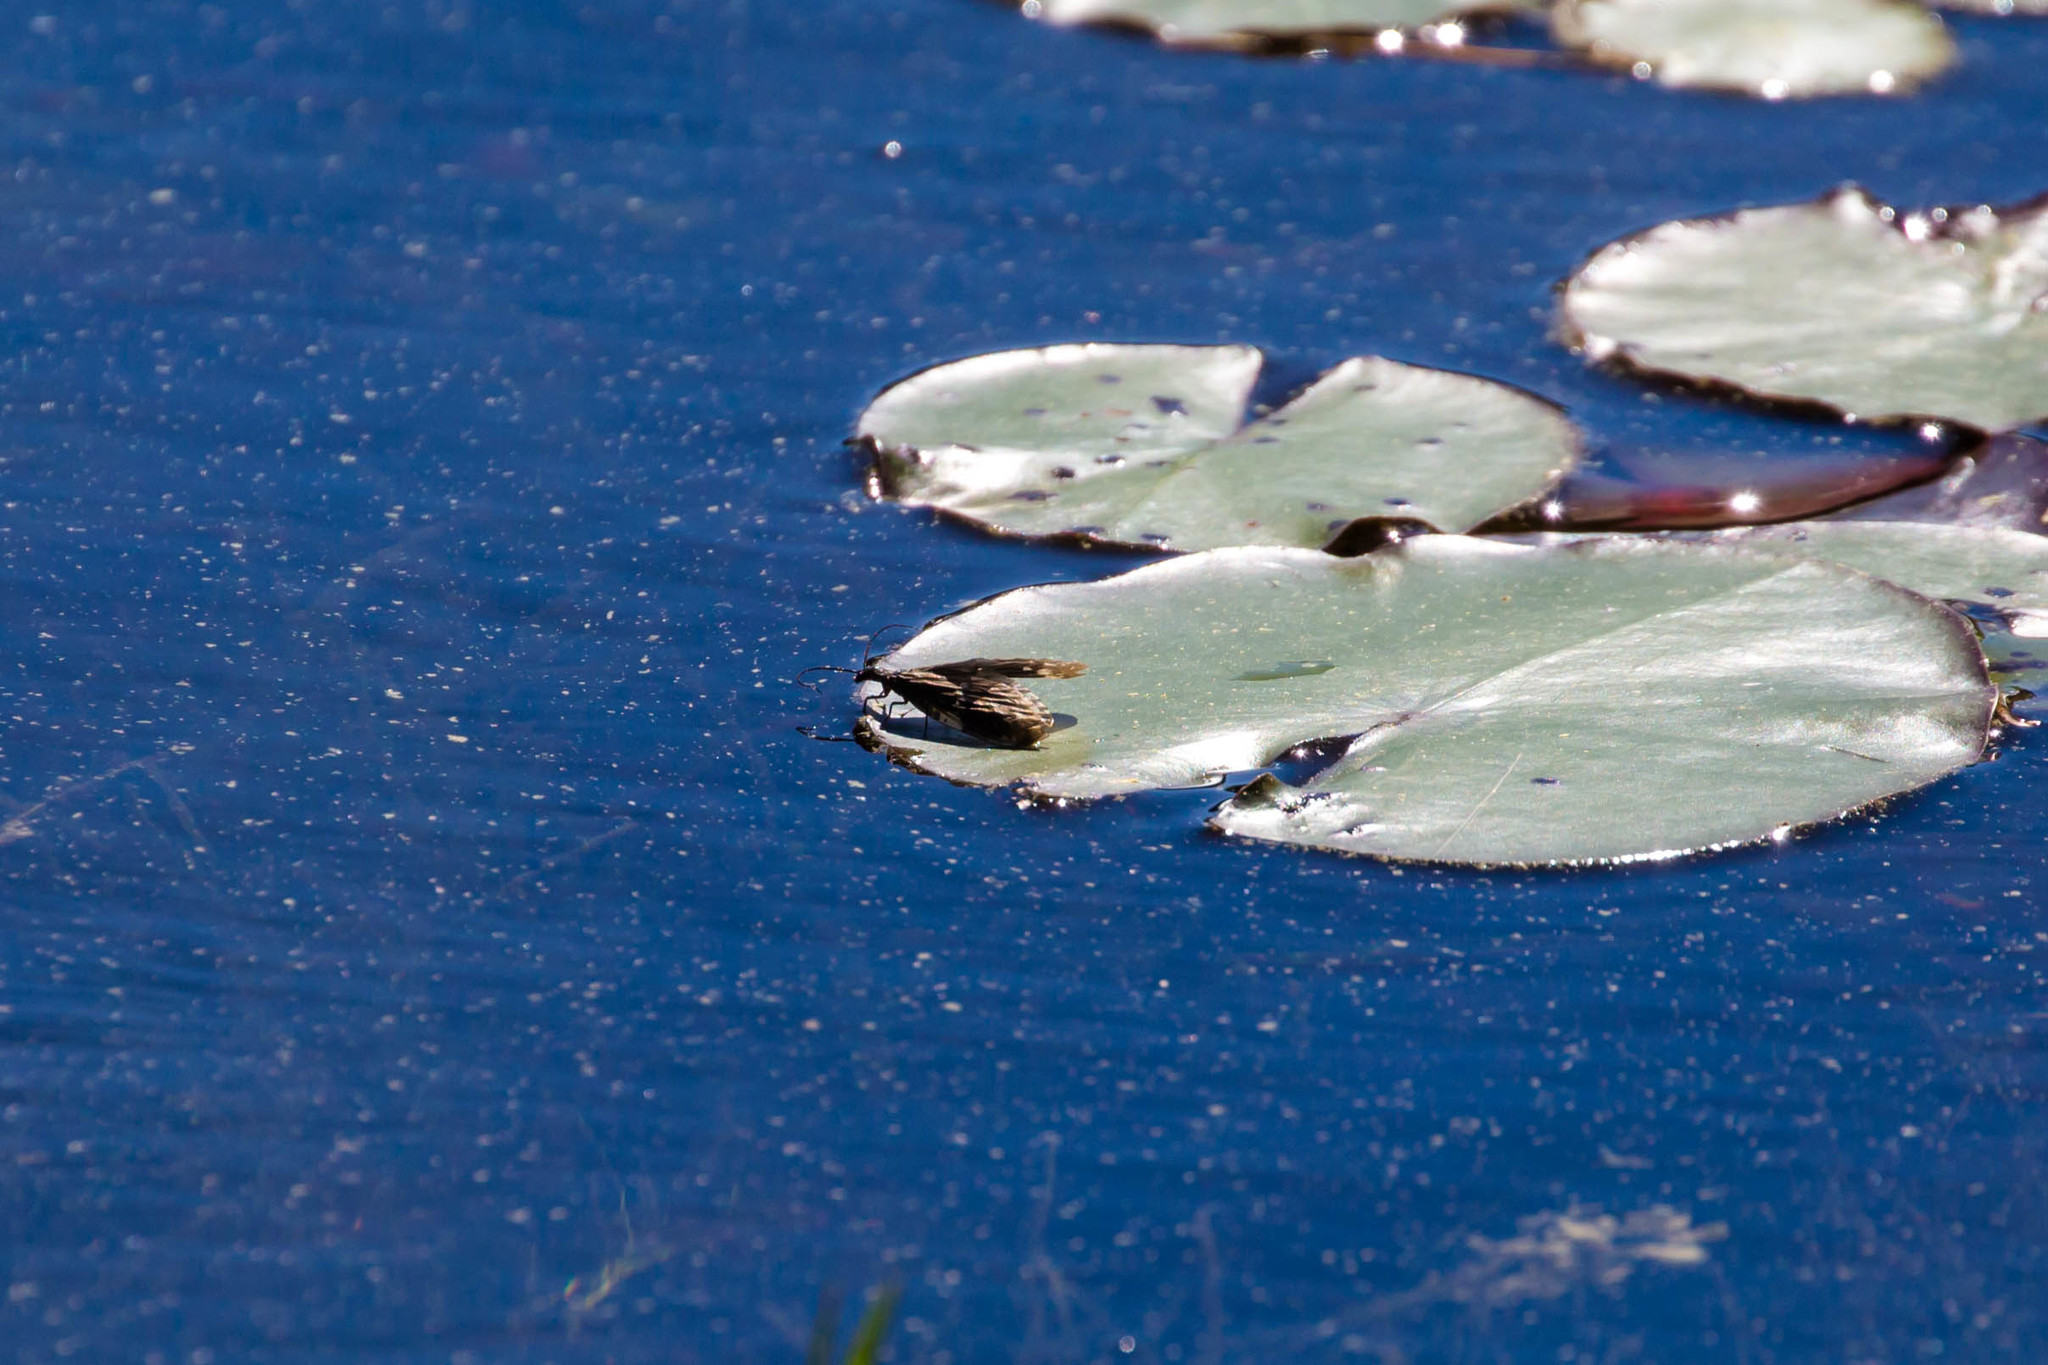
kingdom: Animalia
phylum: Arthropoda
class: Insecta
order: Megaloptera
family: Corydalidae
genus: Nigronia
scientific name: Nigronia serricornis
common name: Serrate dark fishfly
